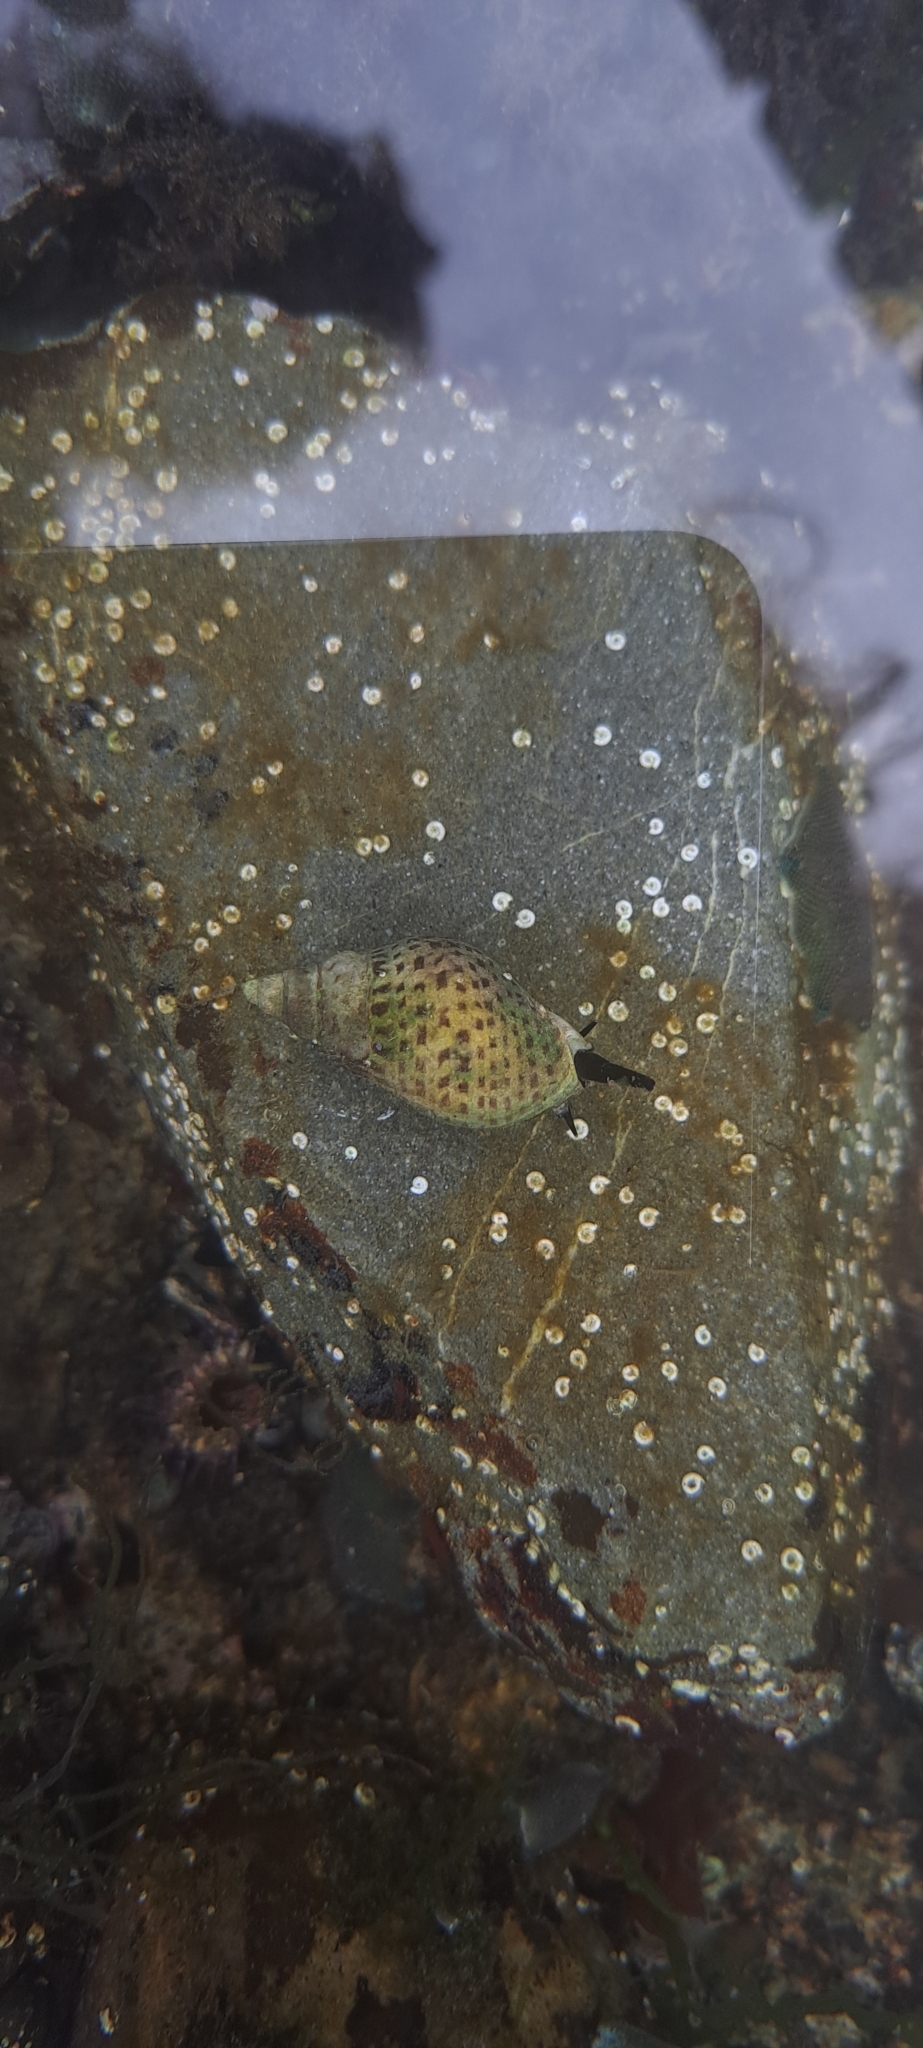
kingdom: Animalia
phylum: Mollusca
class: Gastropoda
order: Neogastropoda
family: Cominellidae
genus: Cominella
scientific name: Cominella maculosa
